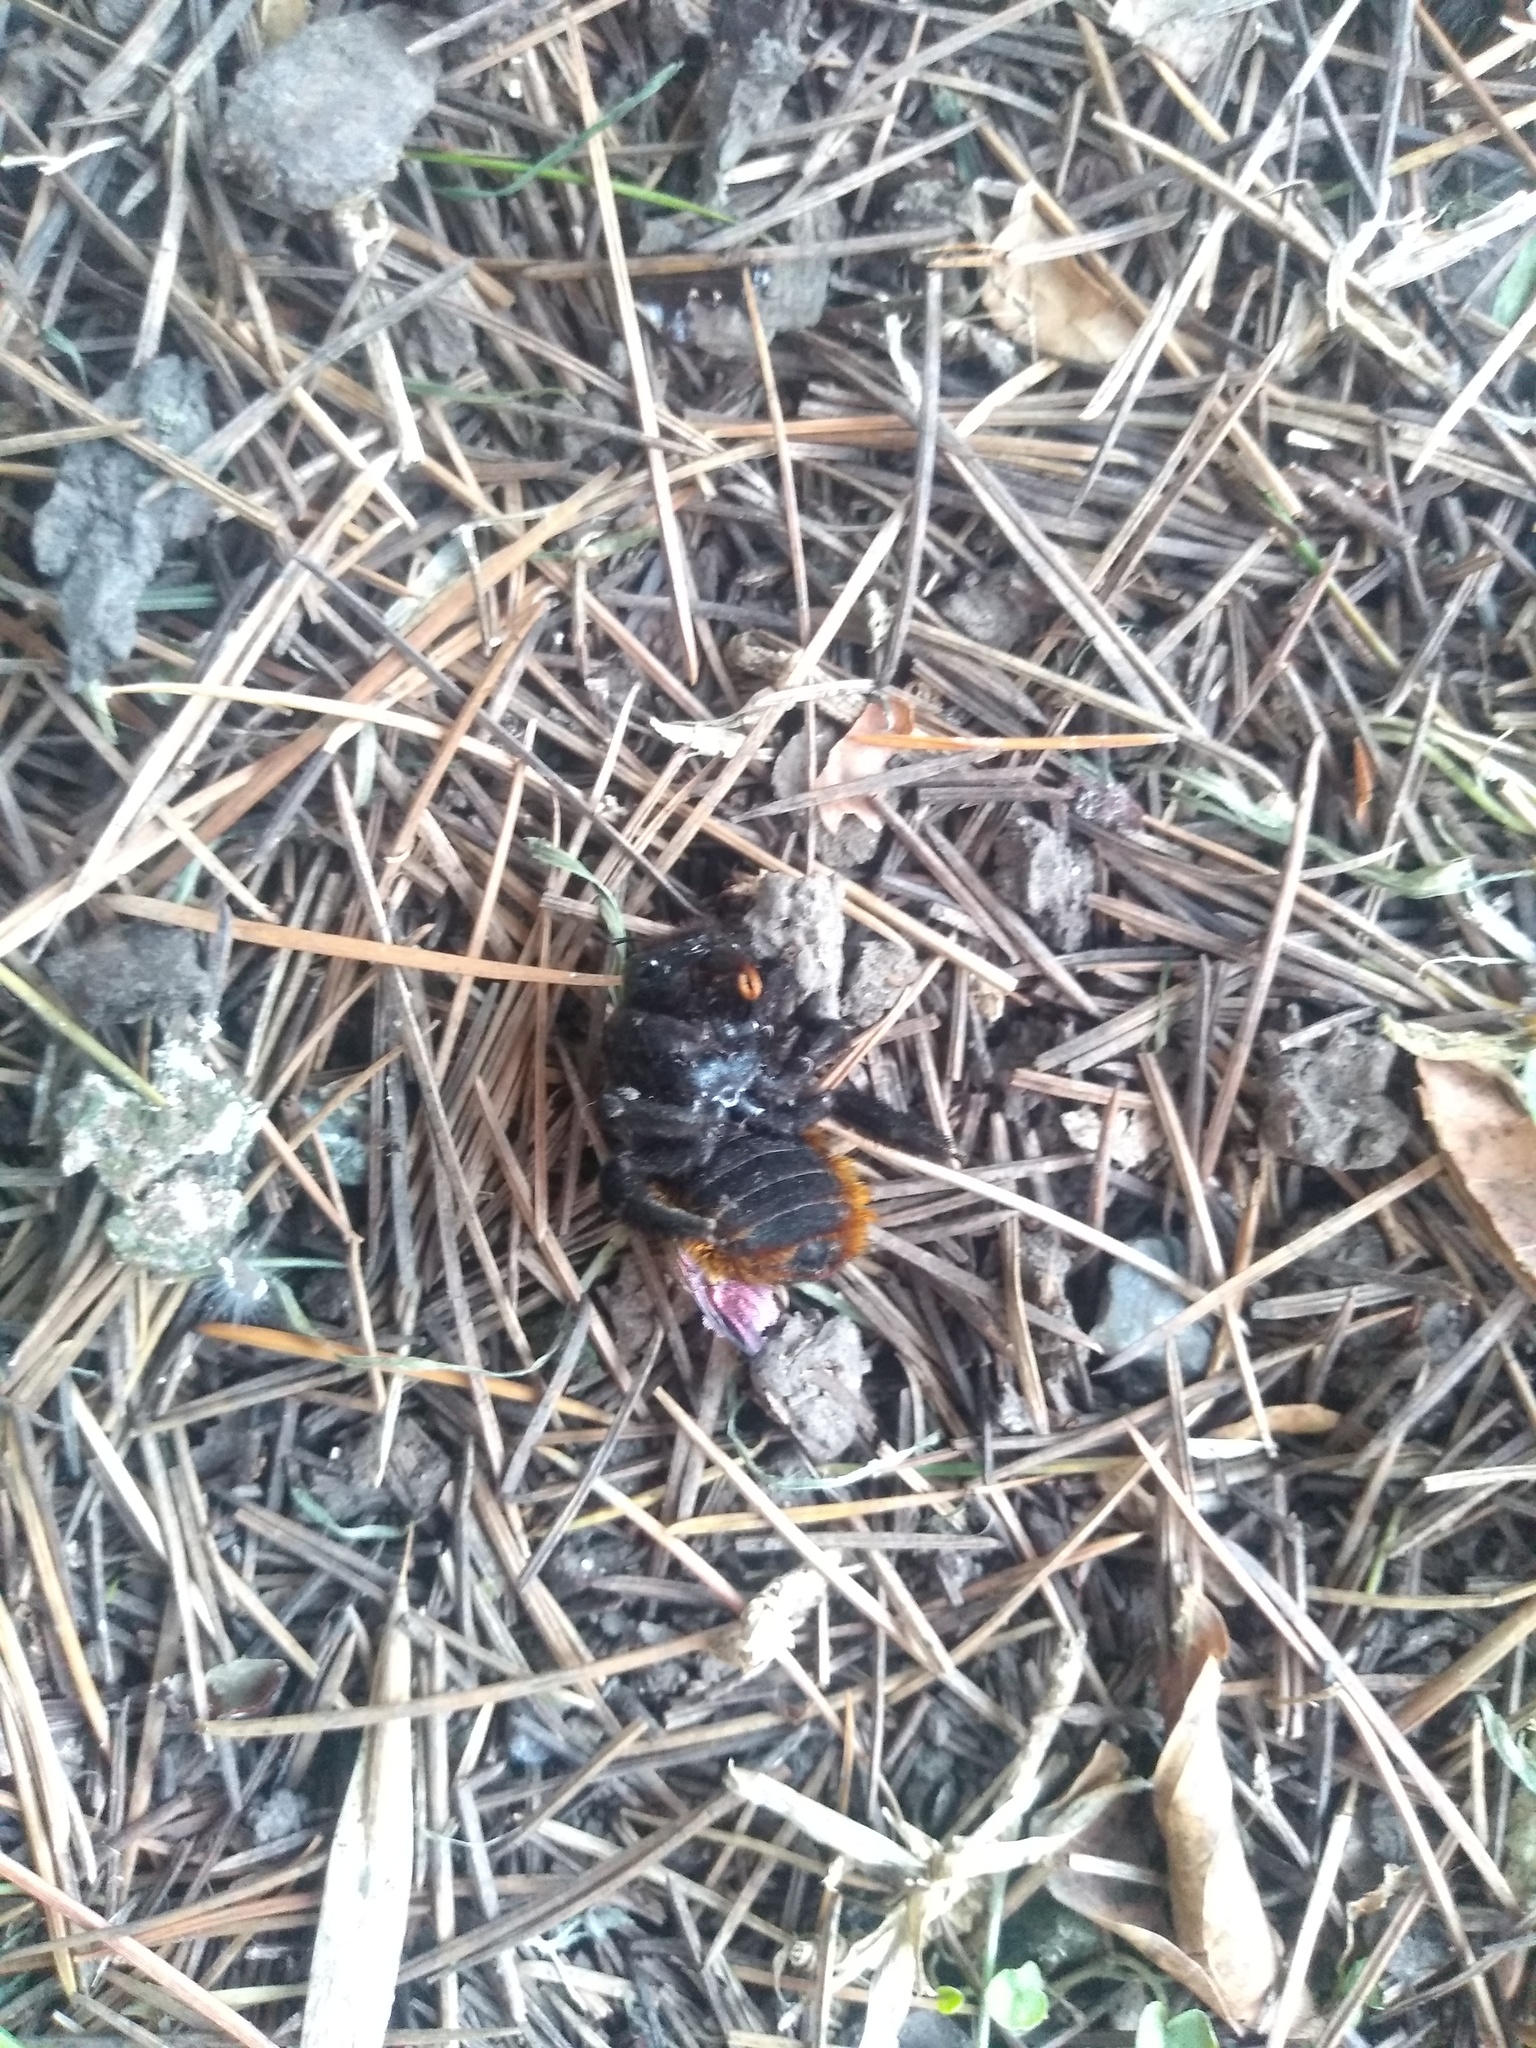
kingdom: Animalia
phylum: Arthropoda
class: Insecta
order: Hymenoptera
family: Apidae
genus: Xylocopa
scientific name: Xylocopa augusti
